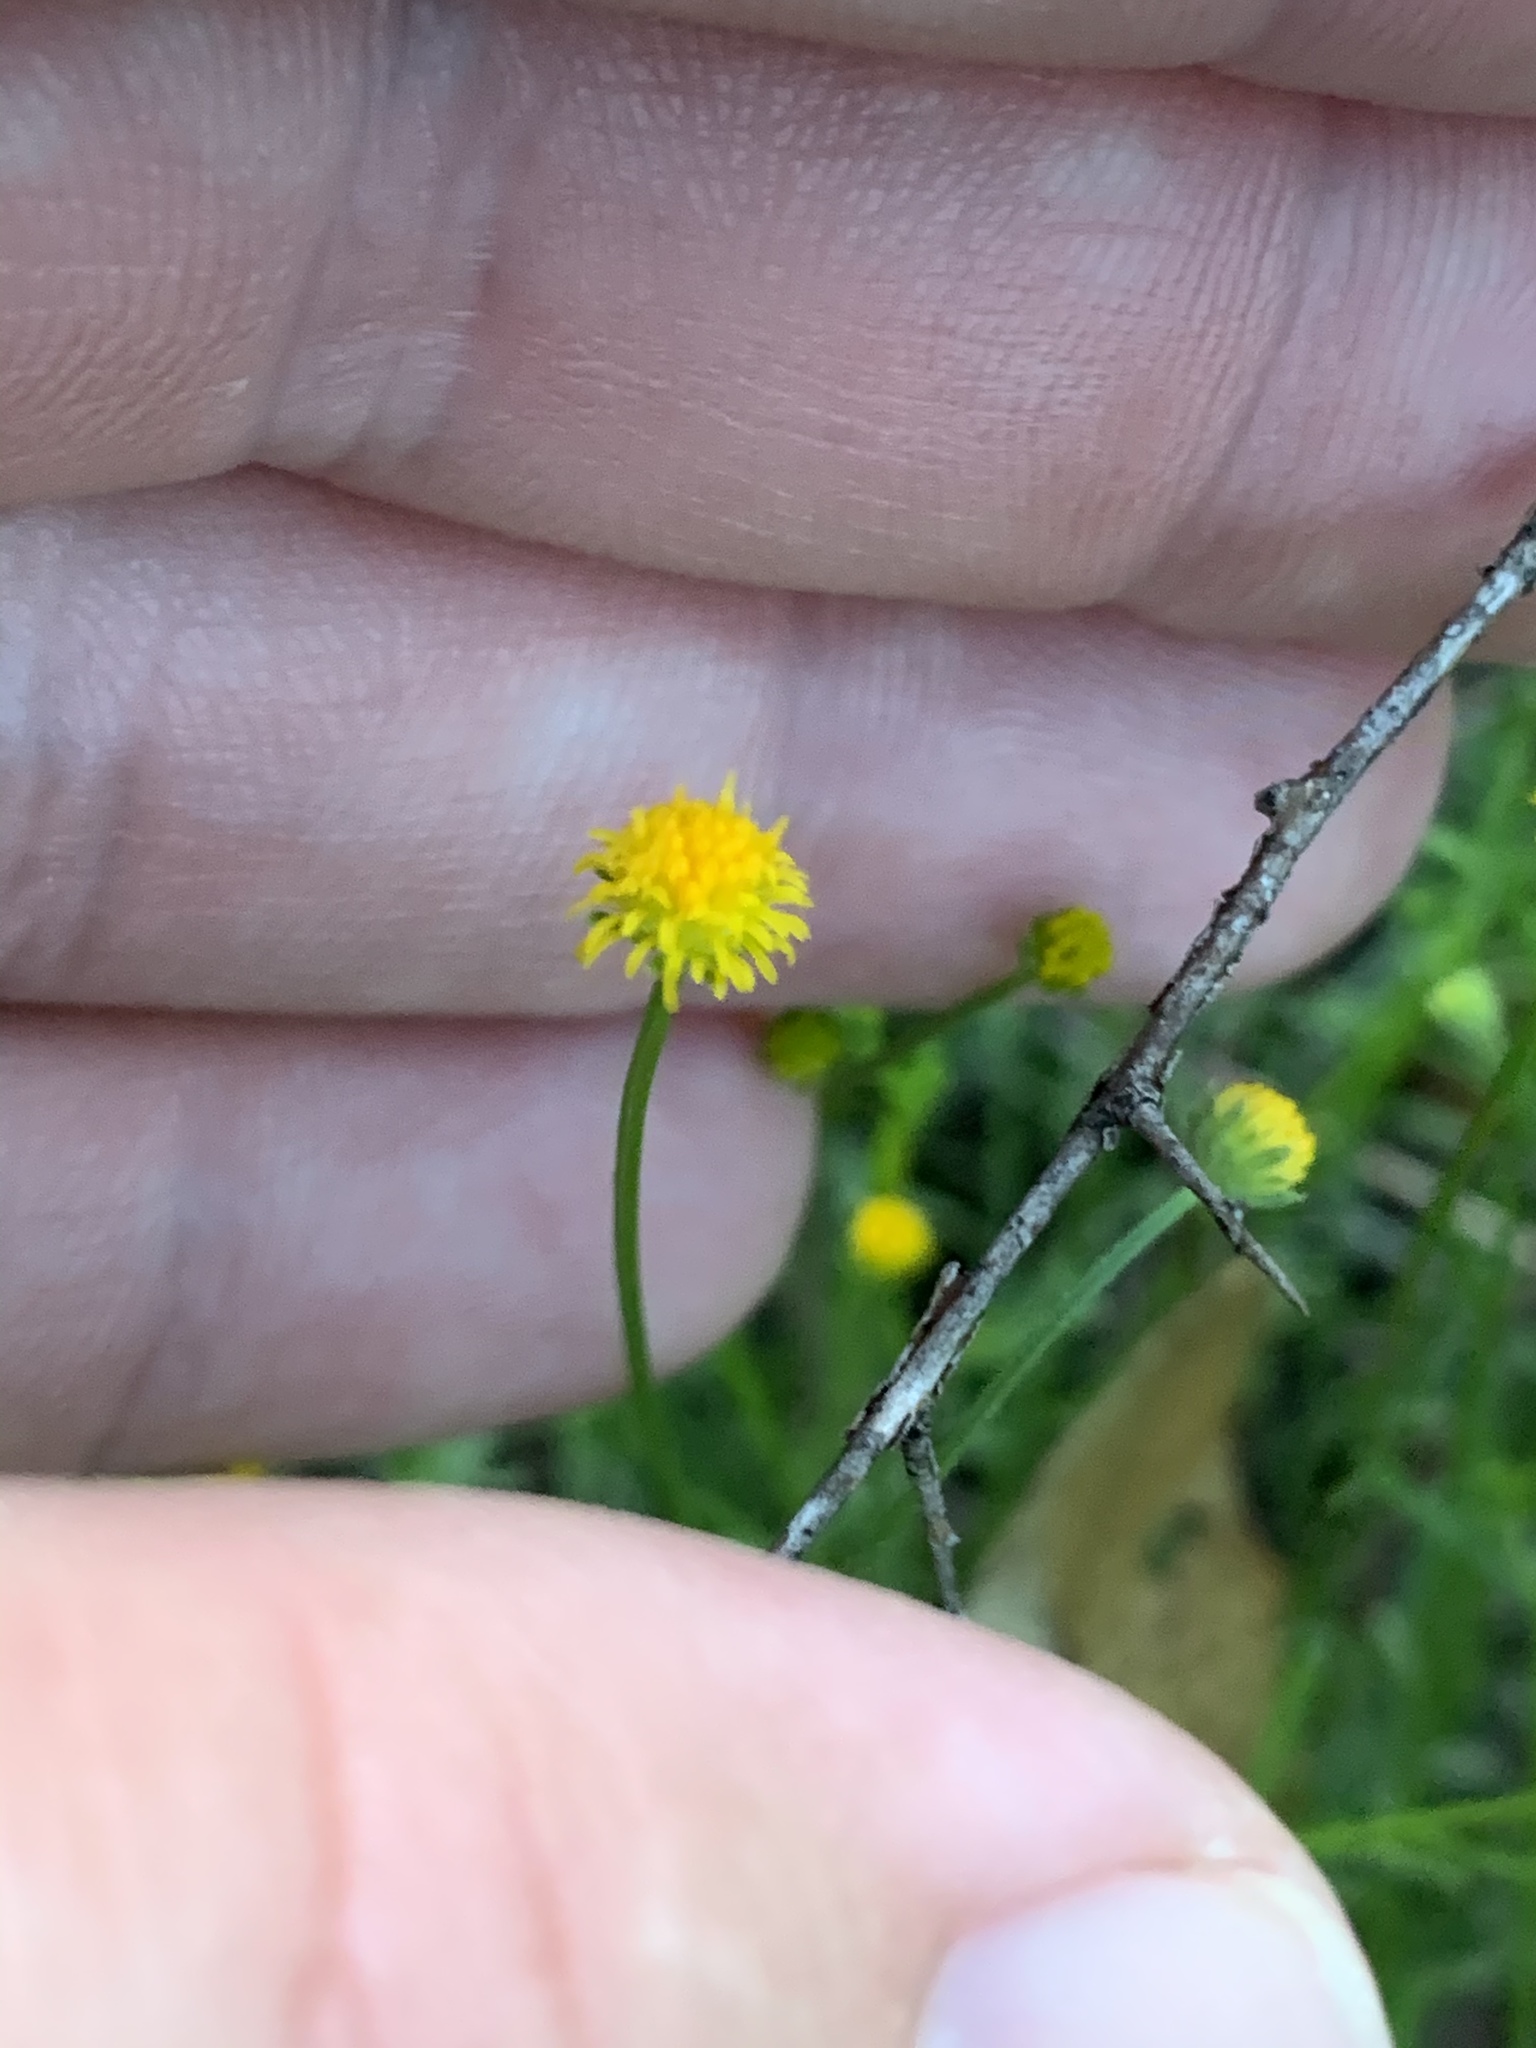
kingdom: Plantae
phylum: Tracheophyta
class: Magnoliopsida
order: Asterales
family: Asteraceae
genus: Calotis
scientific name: Calotis lappulacea
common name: Bur daisy
